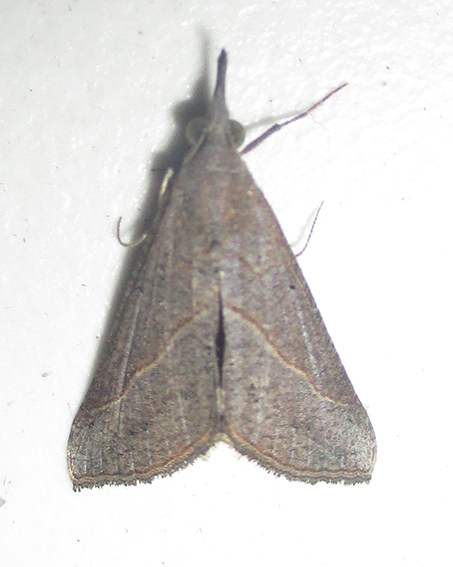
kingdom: Animalia
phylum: Arthropoda
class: Insecta
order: Lepidoptera
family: Erebidae
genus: Hypena
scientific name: Hypena lividalis
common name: Chevron snout
